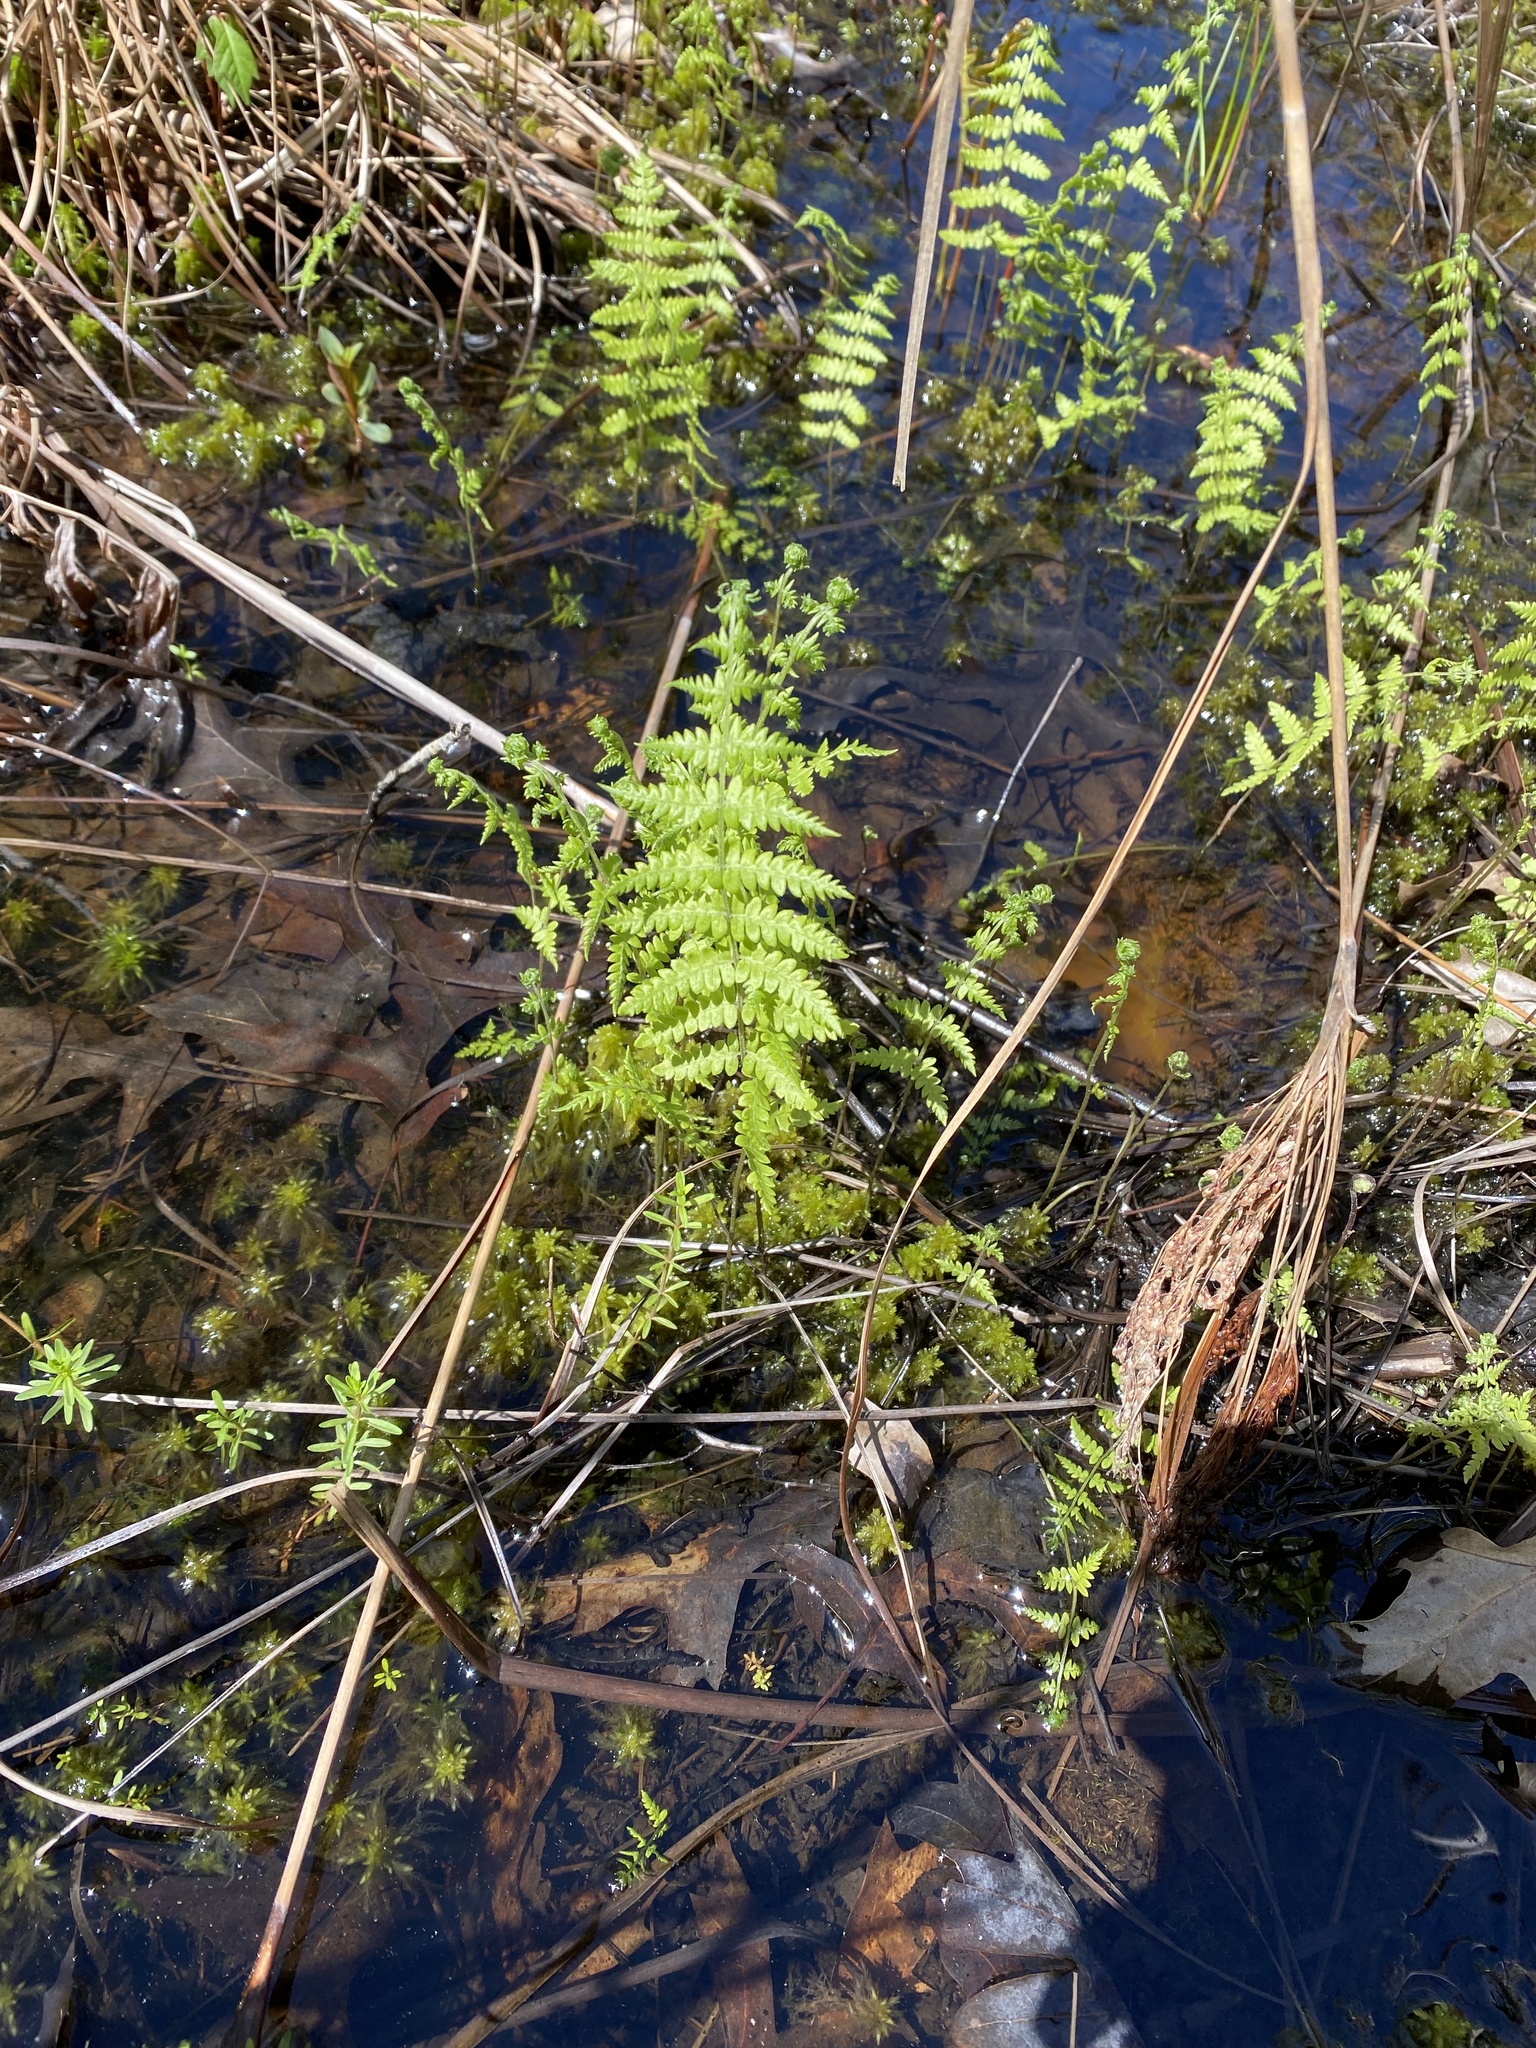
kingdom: Plantae
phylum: Tracheophyta
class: Polypodiopsida
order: Polypodiales
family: Thelypteridaceae
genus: Thelypteris
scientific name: Thelypteris palustris
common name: Marsh fern
